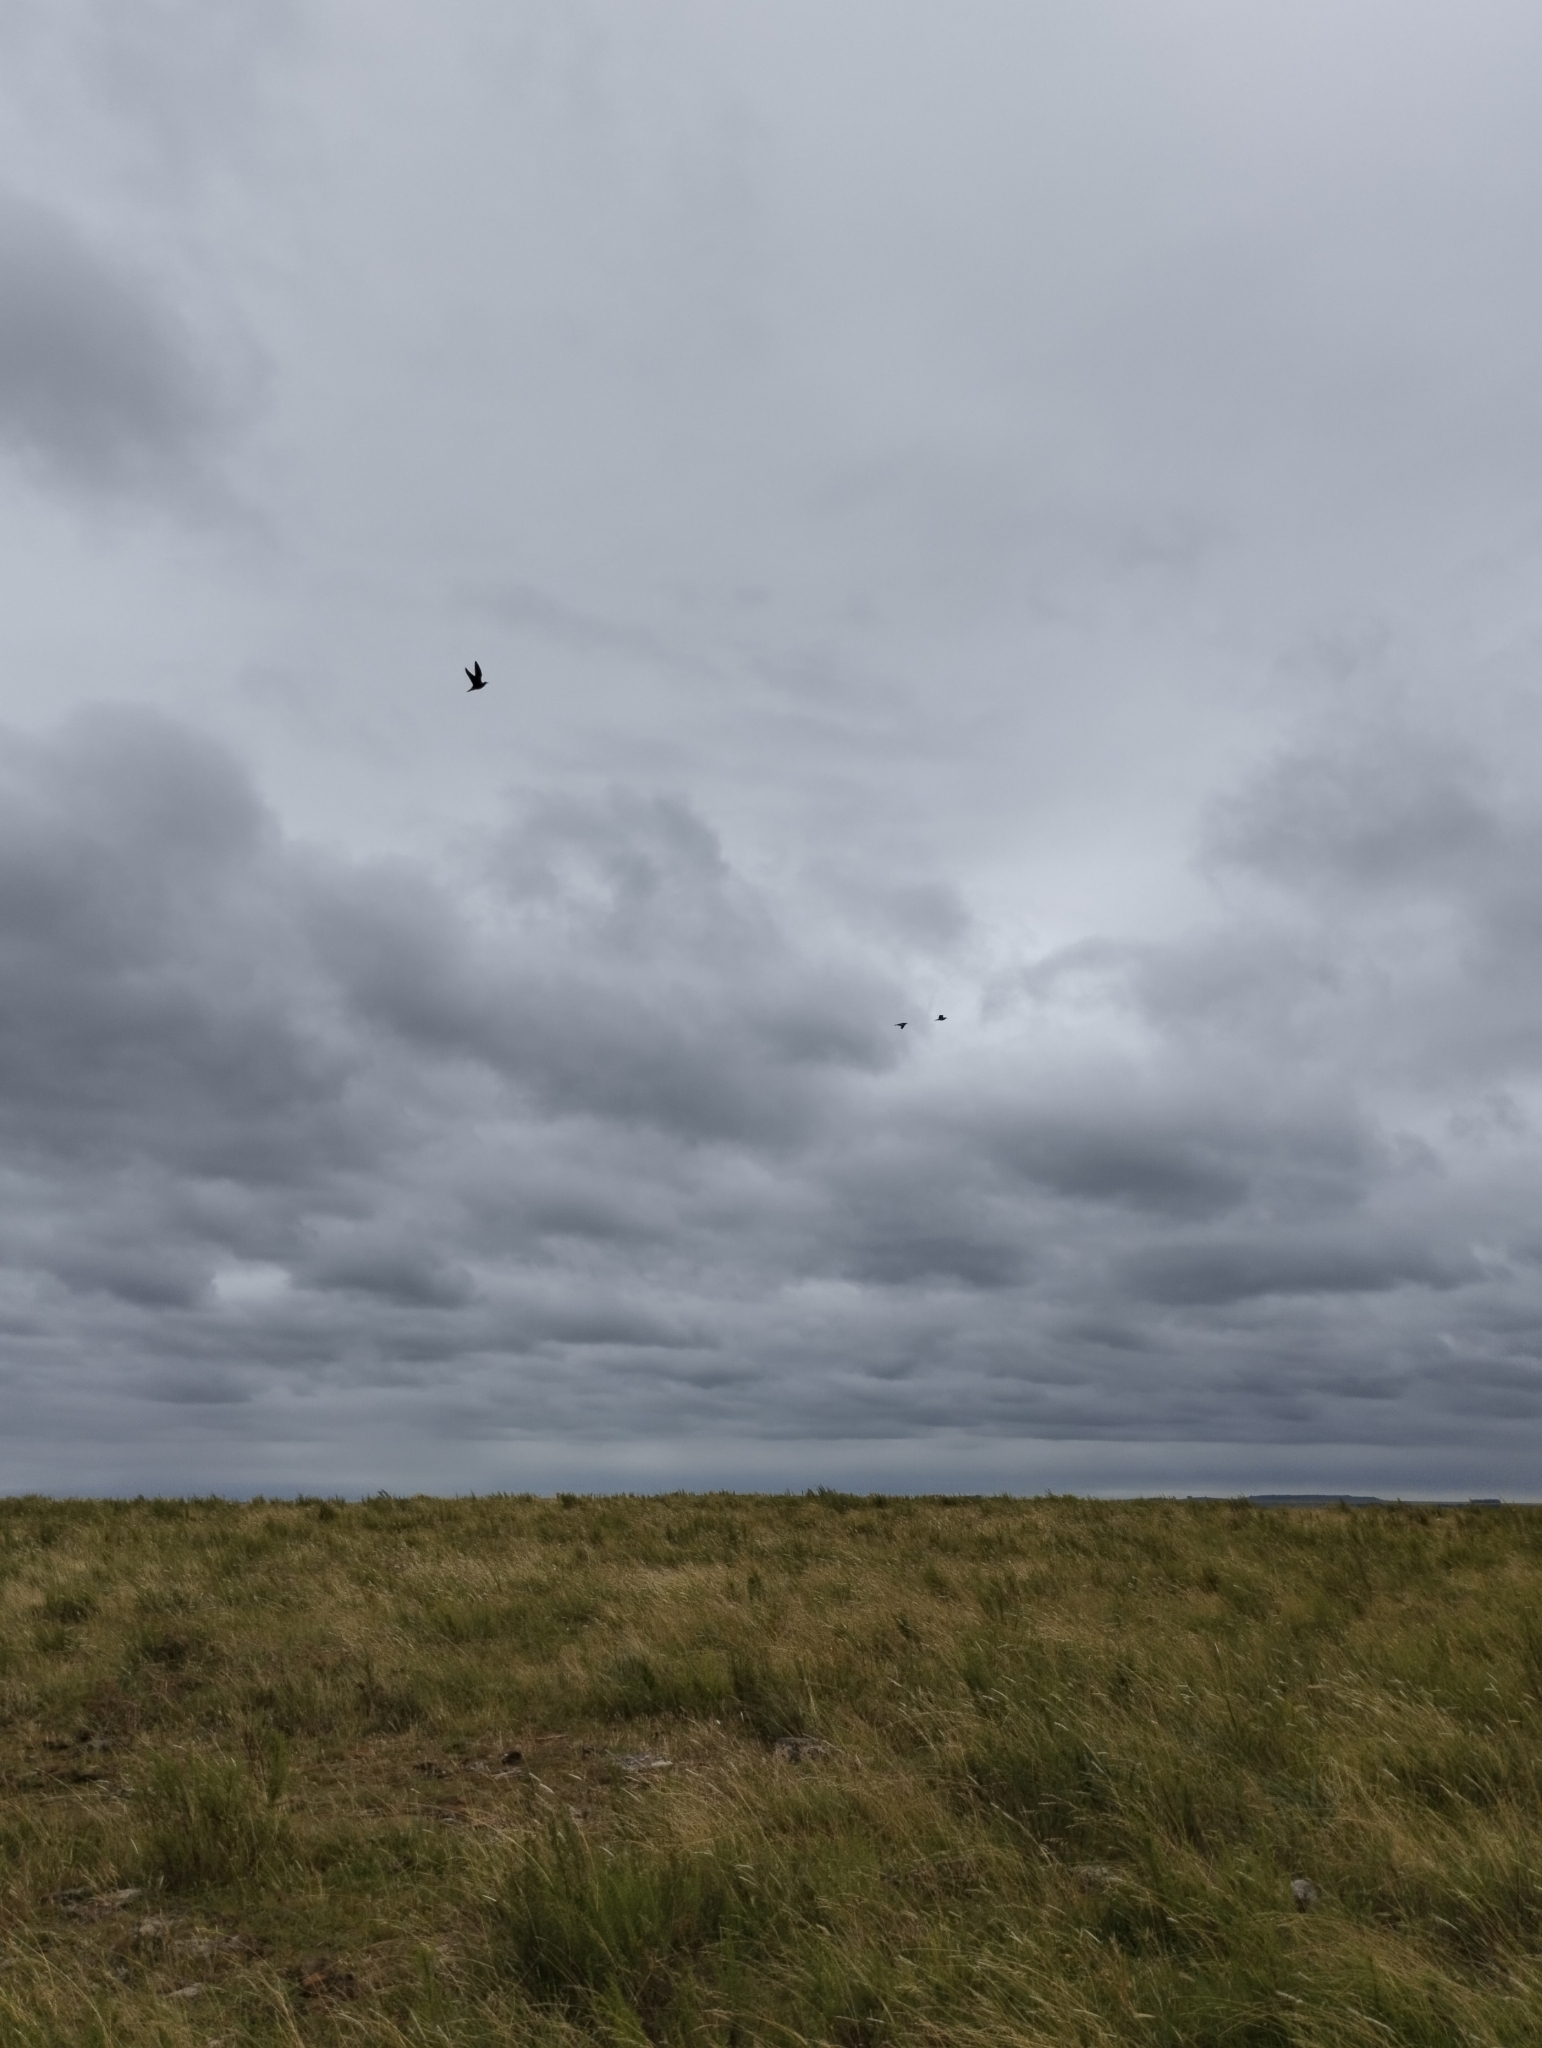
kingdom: Animalia
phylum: Chordata
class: Aves
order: Charadriiformes
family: Scolopacidae
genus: Bartramia
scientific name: Bartramia longicauda
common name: Upland sandpiper
